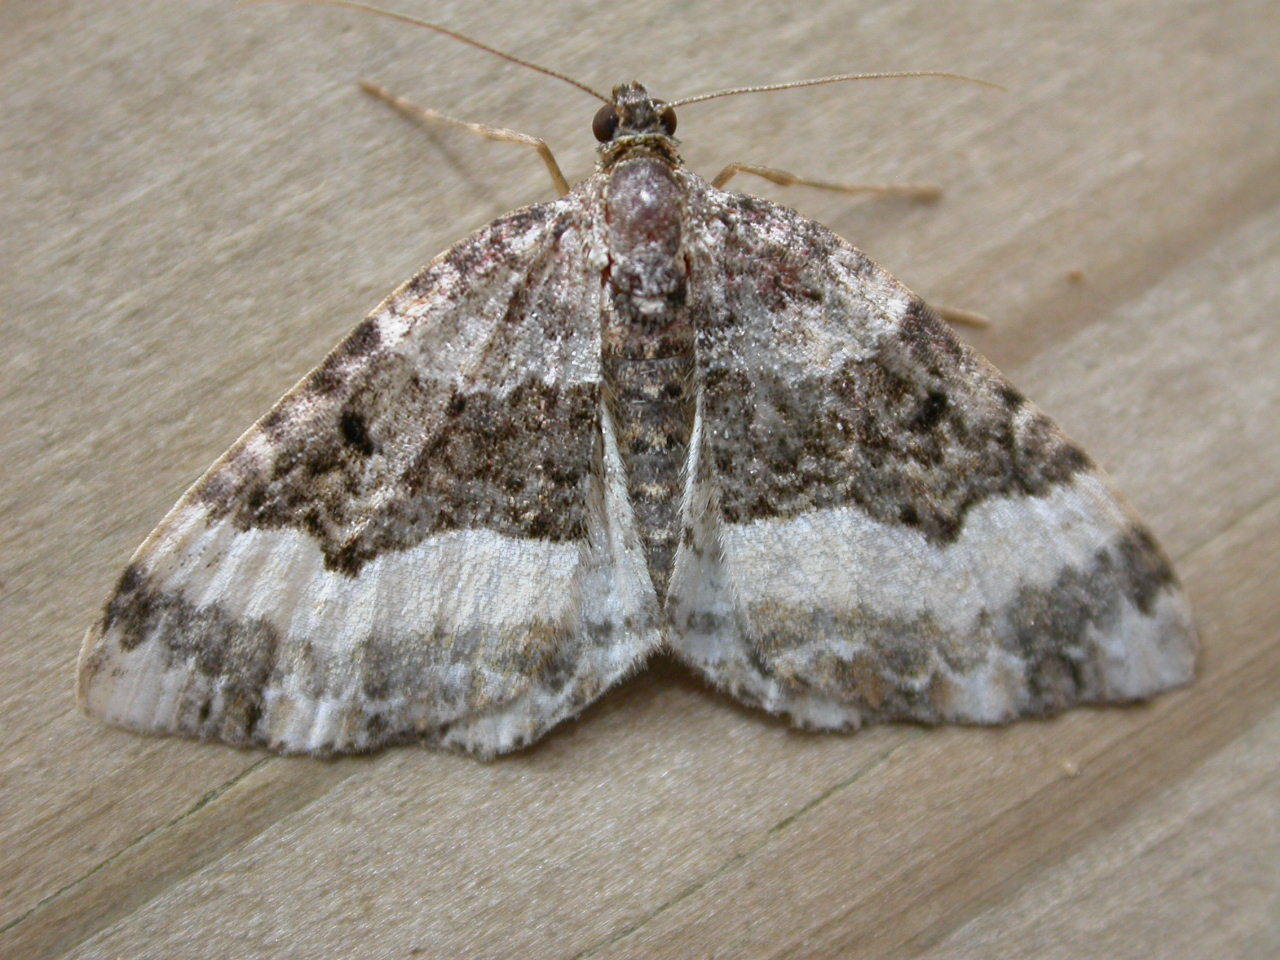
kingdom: Animalia
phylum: Arthropoda
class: Insecta
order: Lepidoptera
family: Geometridae
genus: Epirrhoe
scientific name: Epirrhoe alternata
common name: Common carpet
